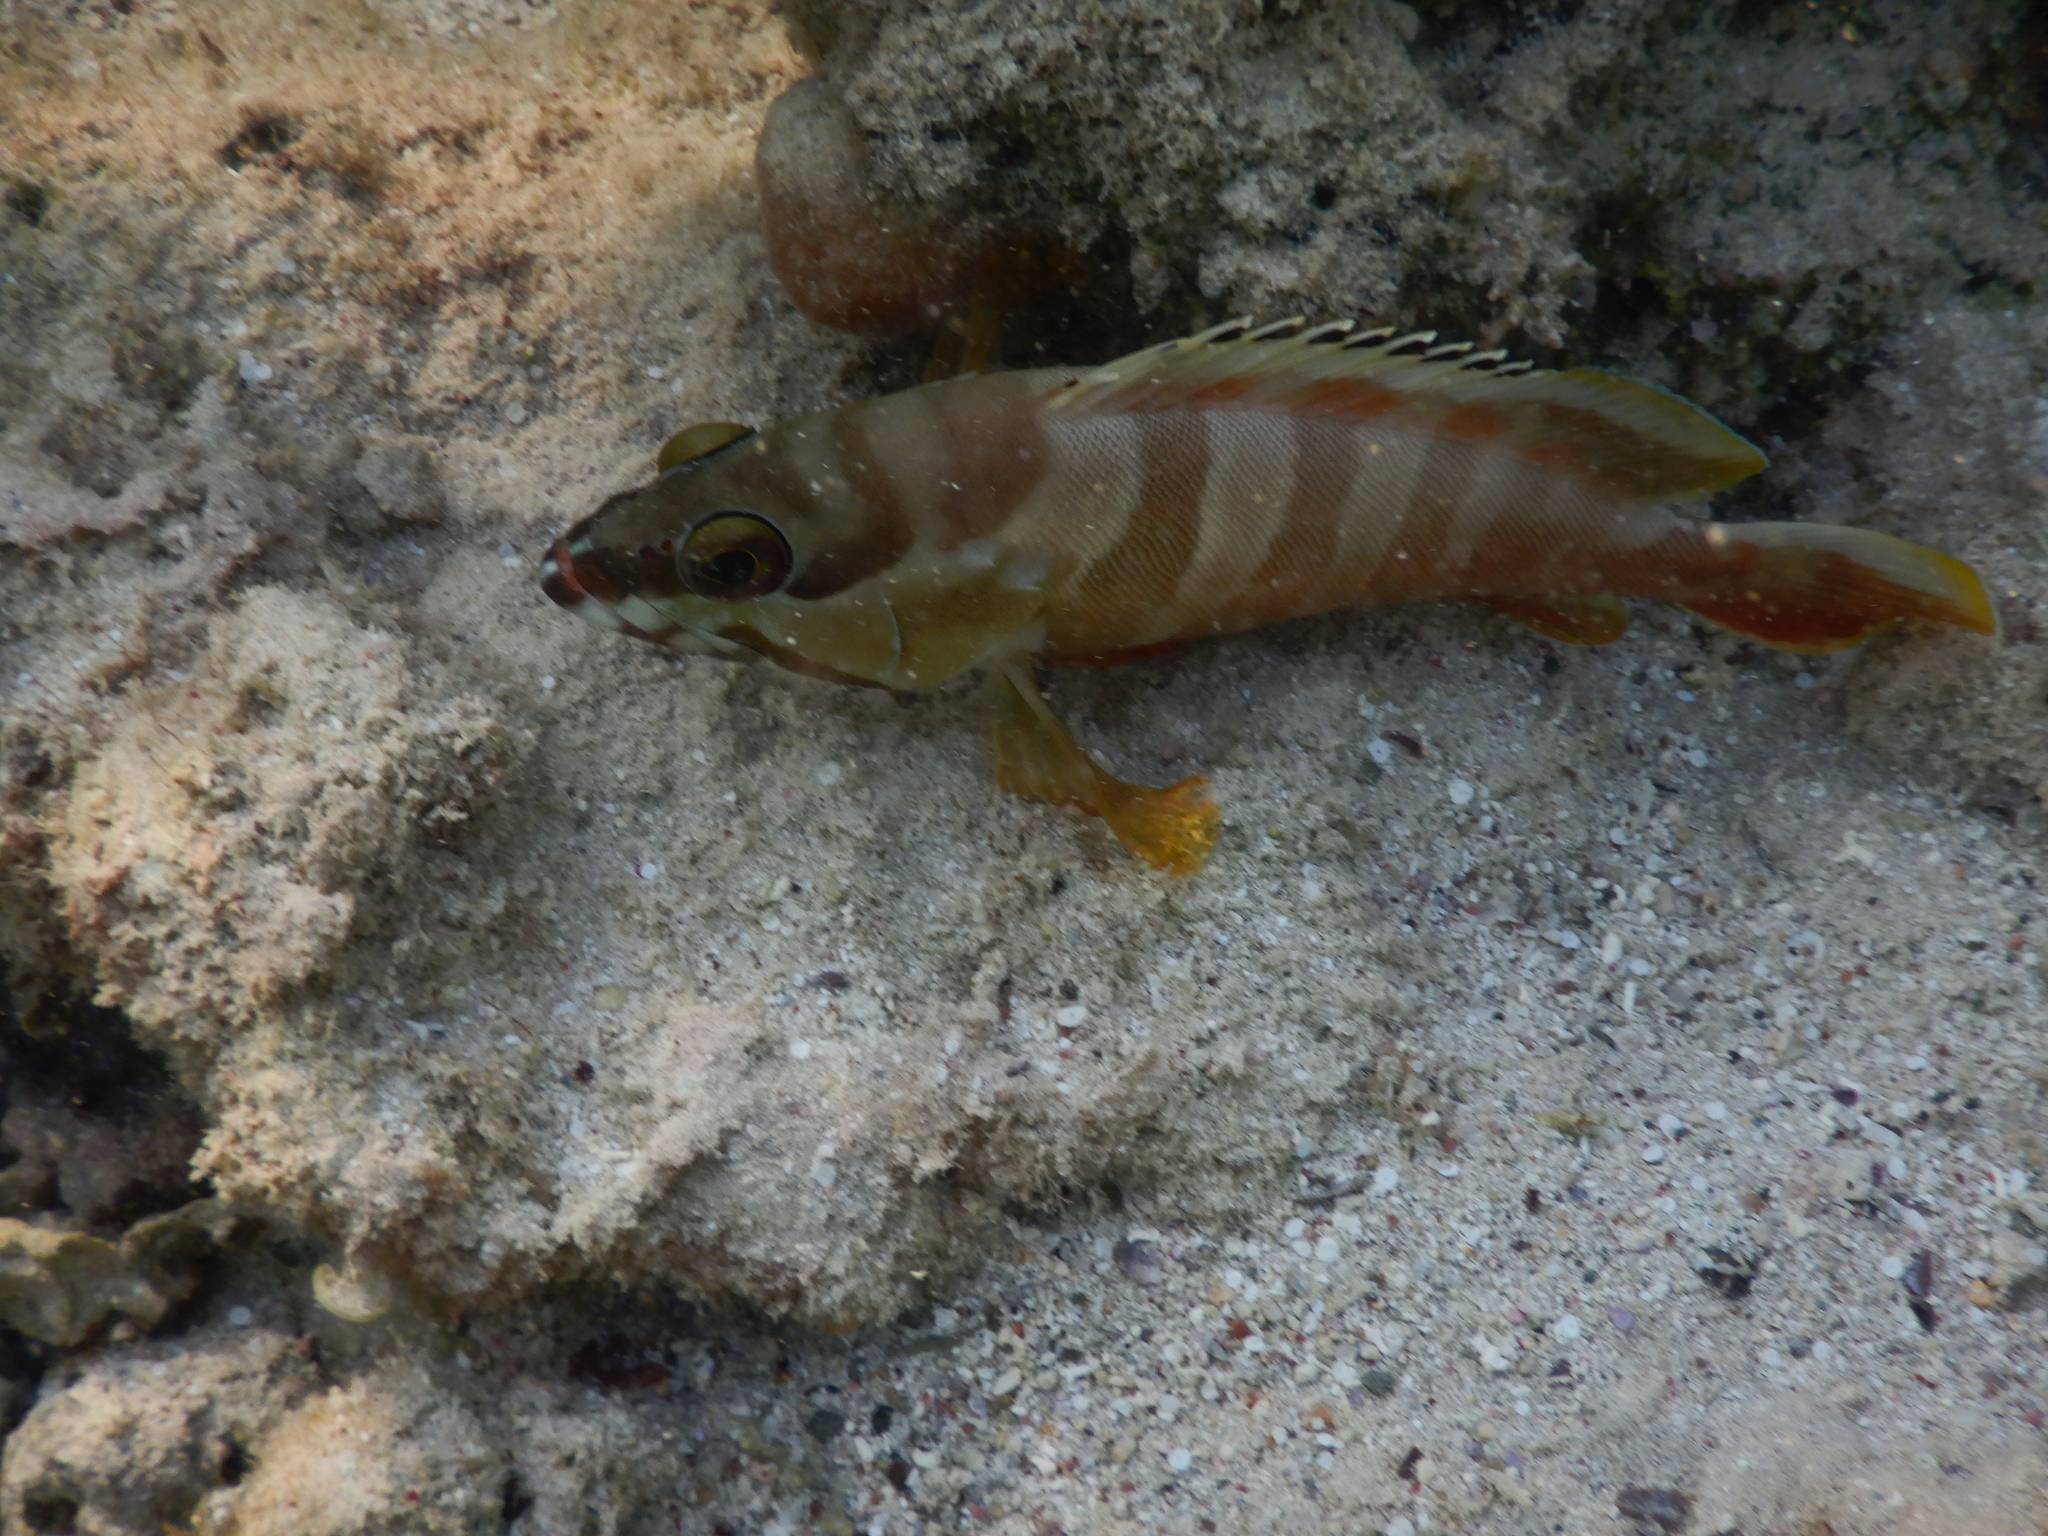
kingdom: Animalia
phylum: Chordata
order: Perciformes
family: Serranidae
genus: Epinephelus
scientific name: Epinephelus fasciatus
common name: Blacktip grouper
